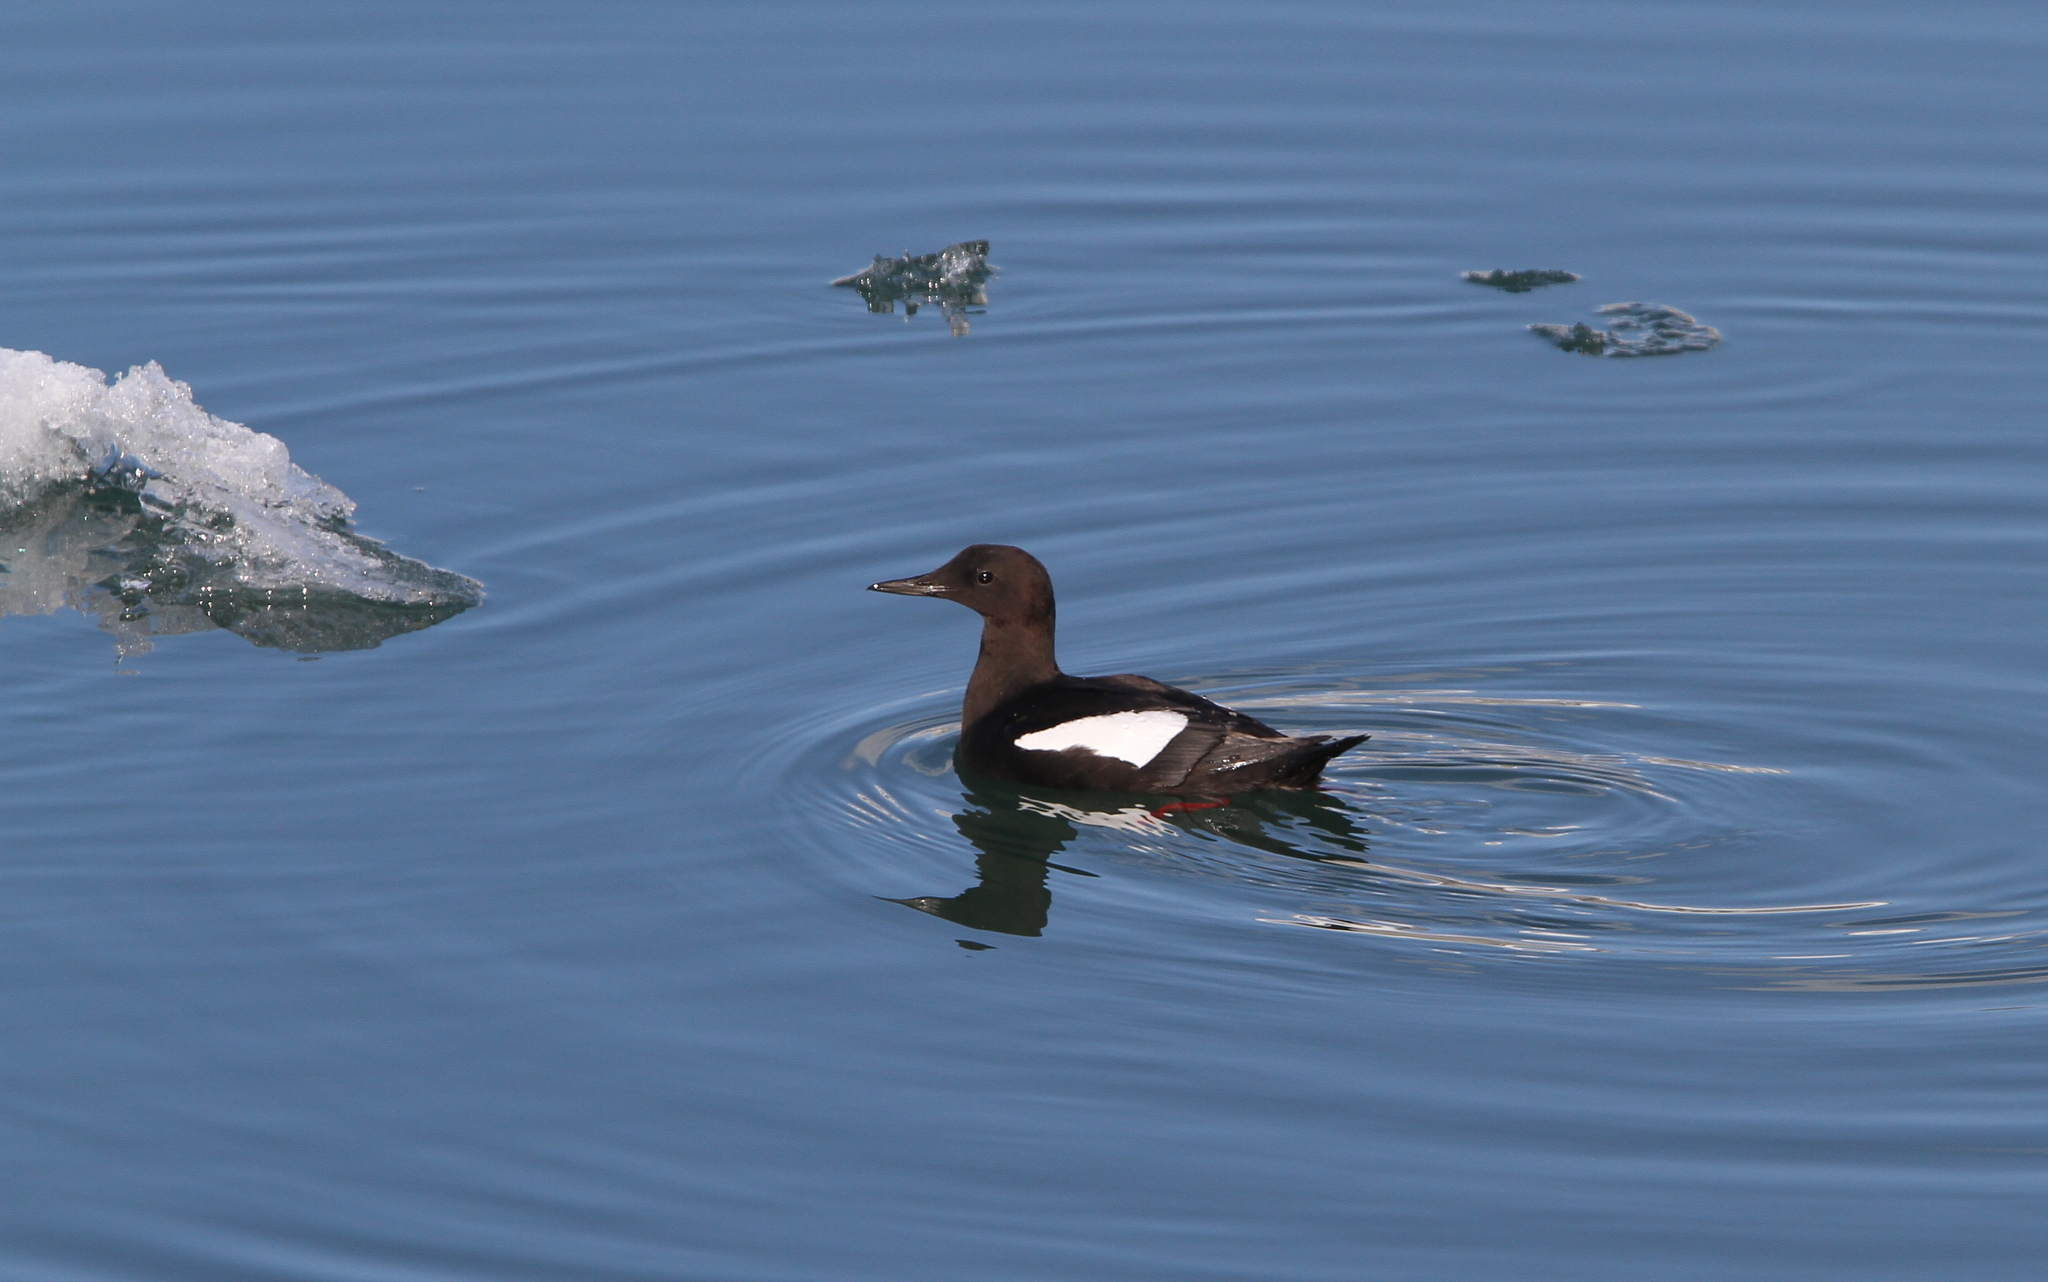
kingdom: Animalia
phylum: Chordata
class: Aves
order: Charadriiformes
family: Alcidae
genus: Cepphus
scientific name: Cepphus grylle
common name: Black guillemot
